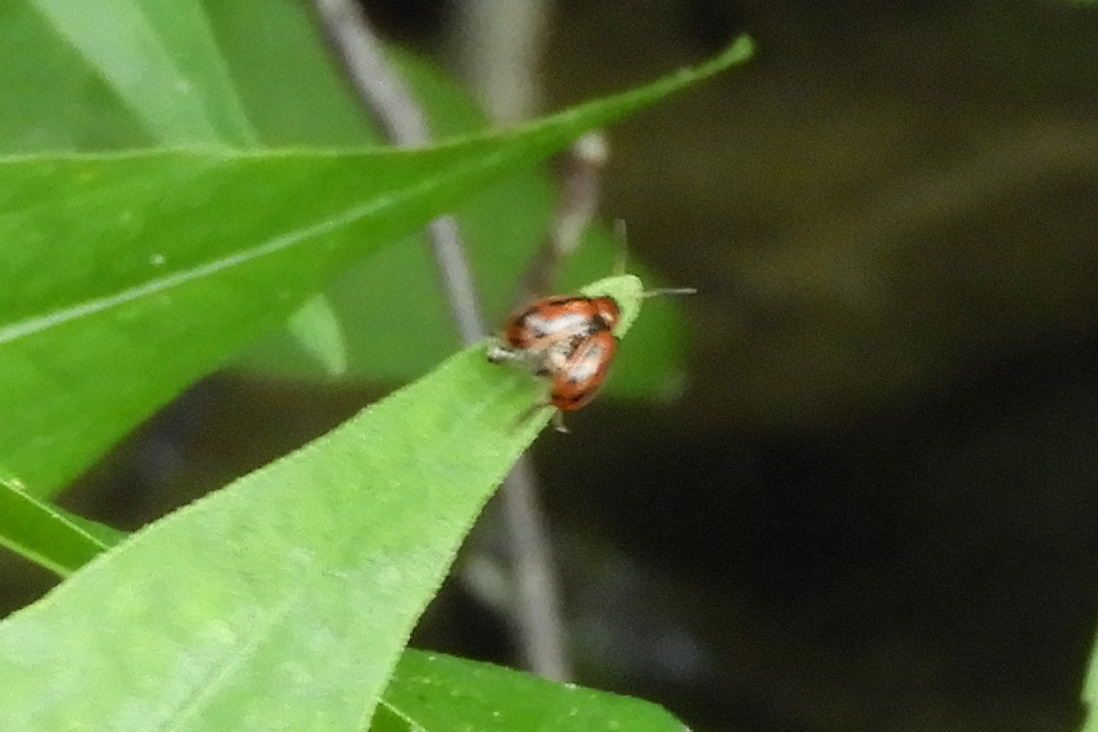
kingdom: Animalia
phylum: Arthropoda
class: Insecta
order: Coleoptera
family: Chrysomelidae
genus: Cerotoma
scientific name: Cerotoma trifurcata
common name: Bean leaf beetle
